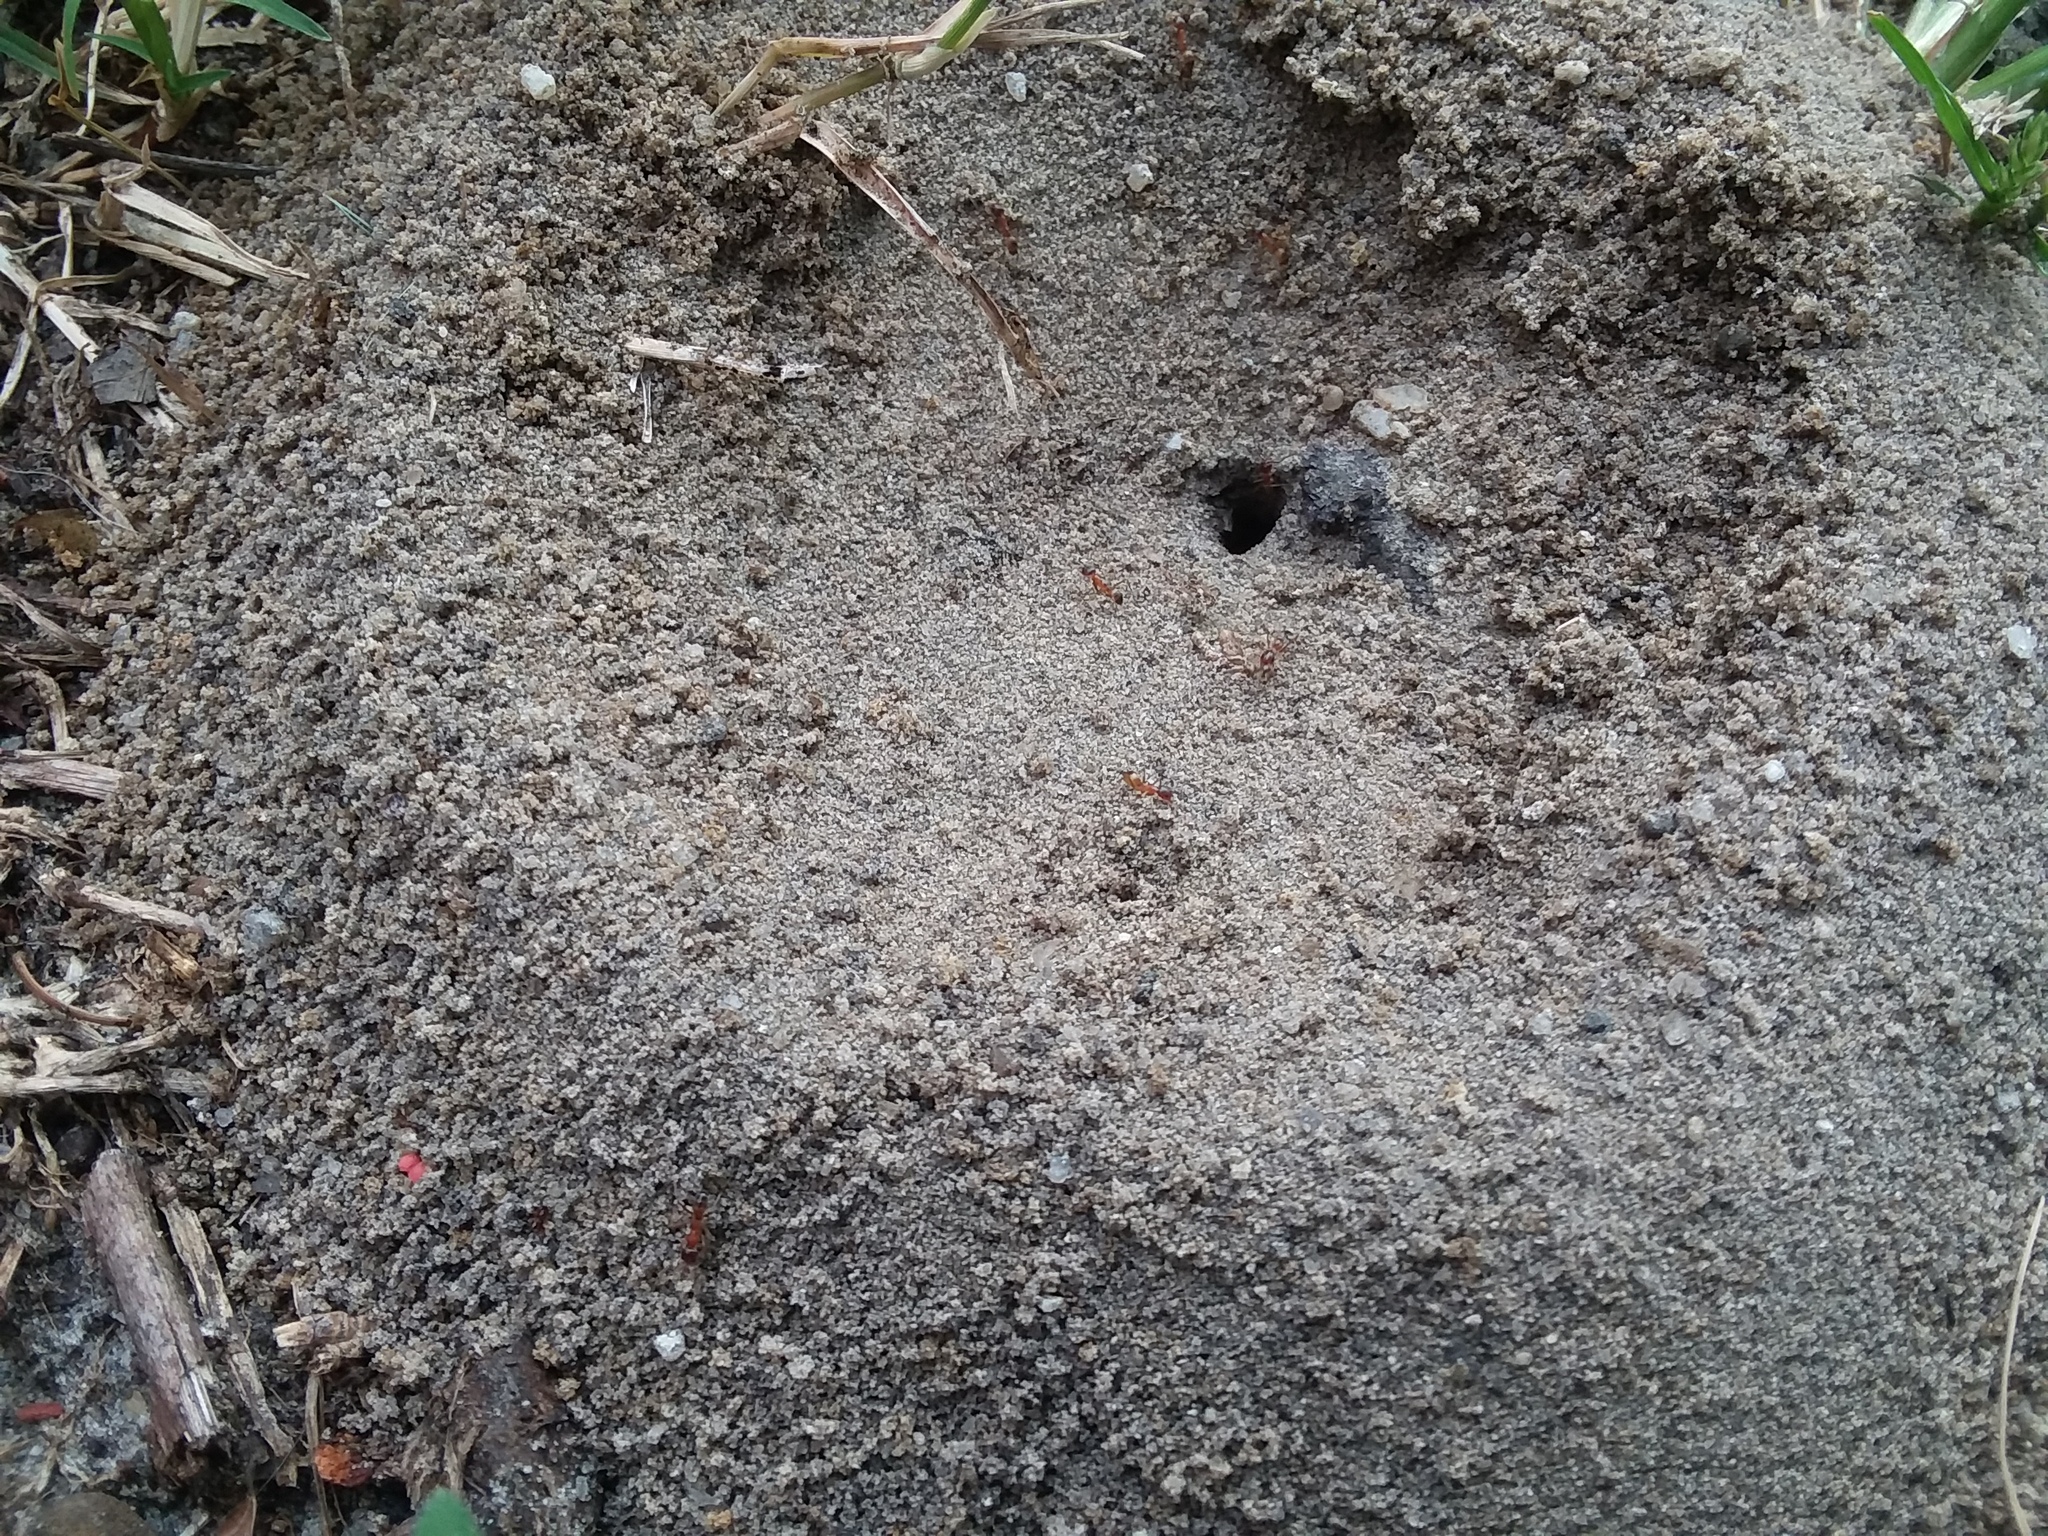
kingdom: Animalia
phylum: Arthropoda
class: Insecta
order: Hymenoptera
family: Formicidae
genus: Dorymyrmex
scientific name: Dorymyrmex bureni
